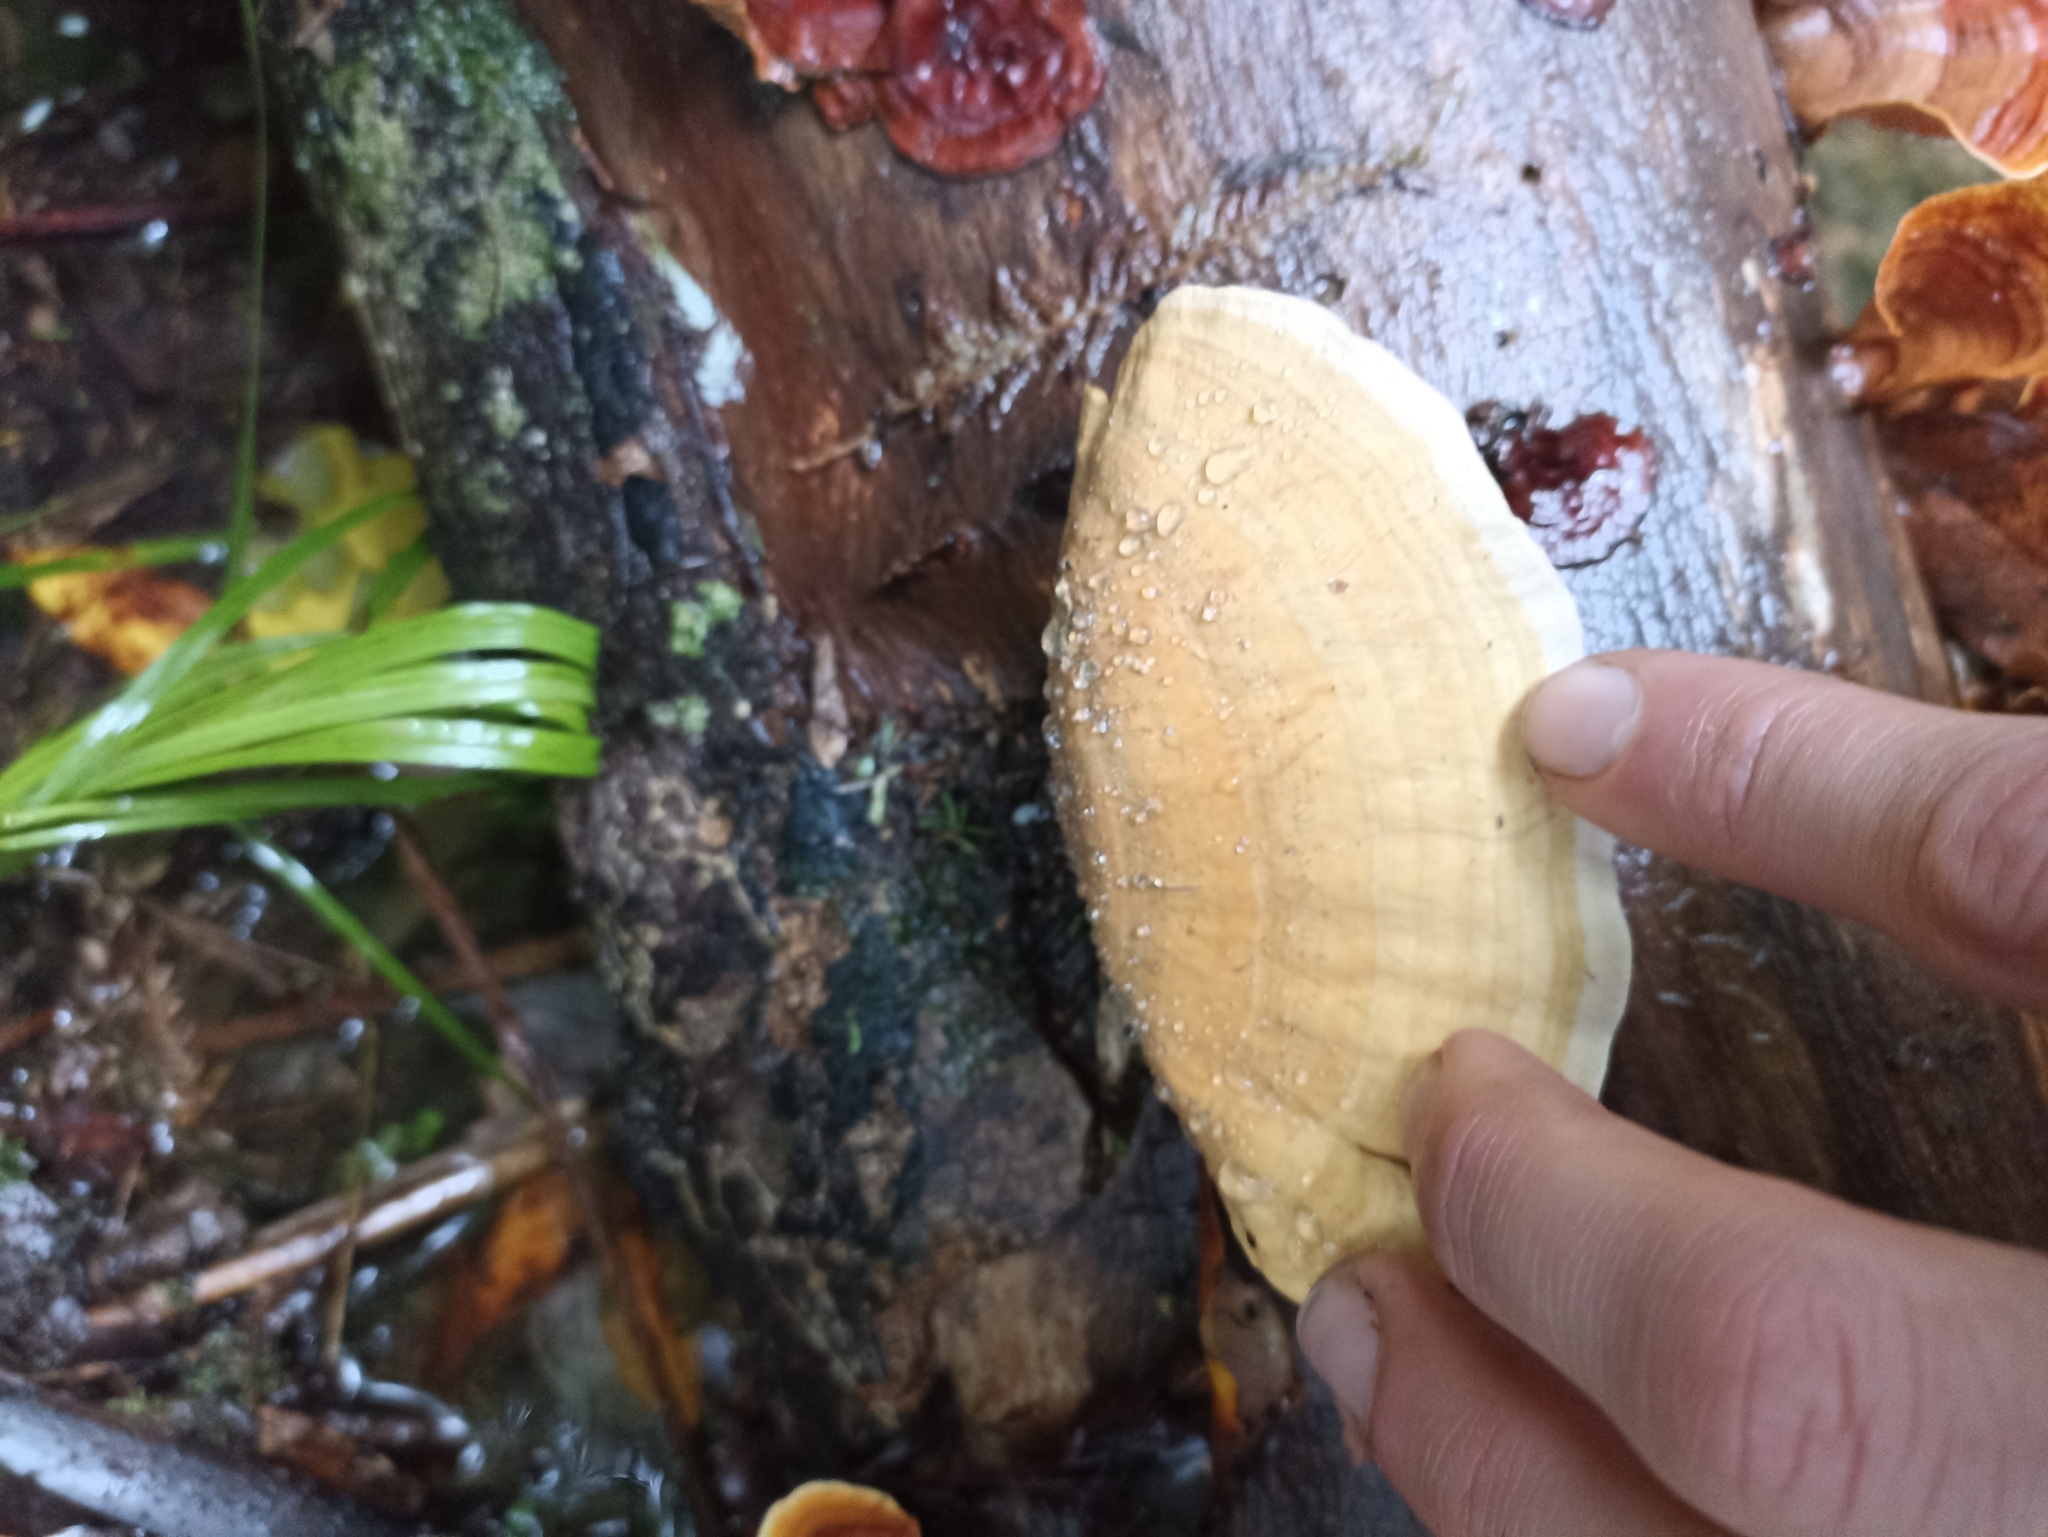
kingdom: Fungi
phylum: Basidiomycota
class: Agaricomycetes
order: Russulales
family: Stereaceae
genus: Stereum
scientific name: Stereum versicolor
